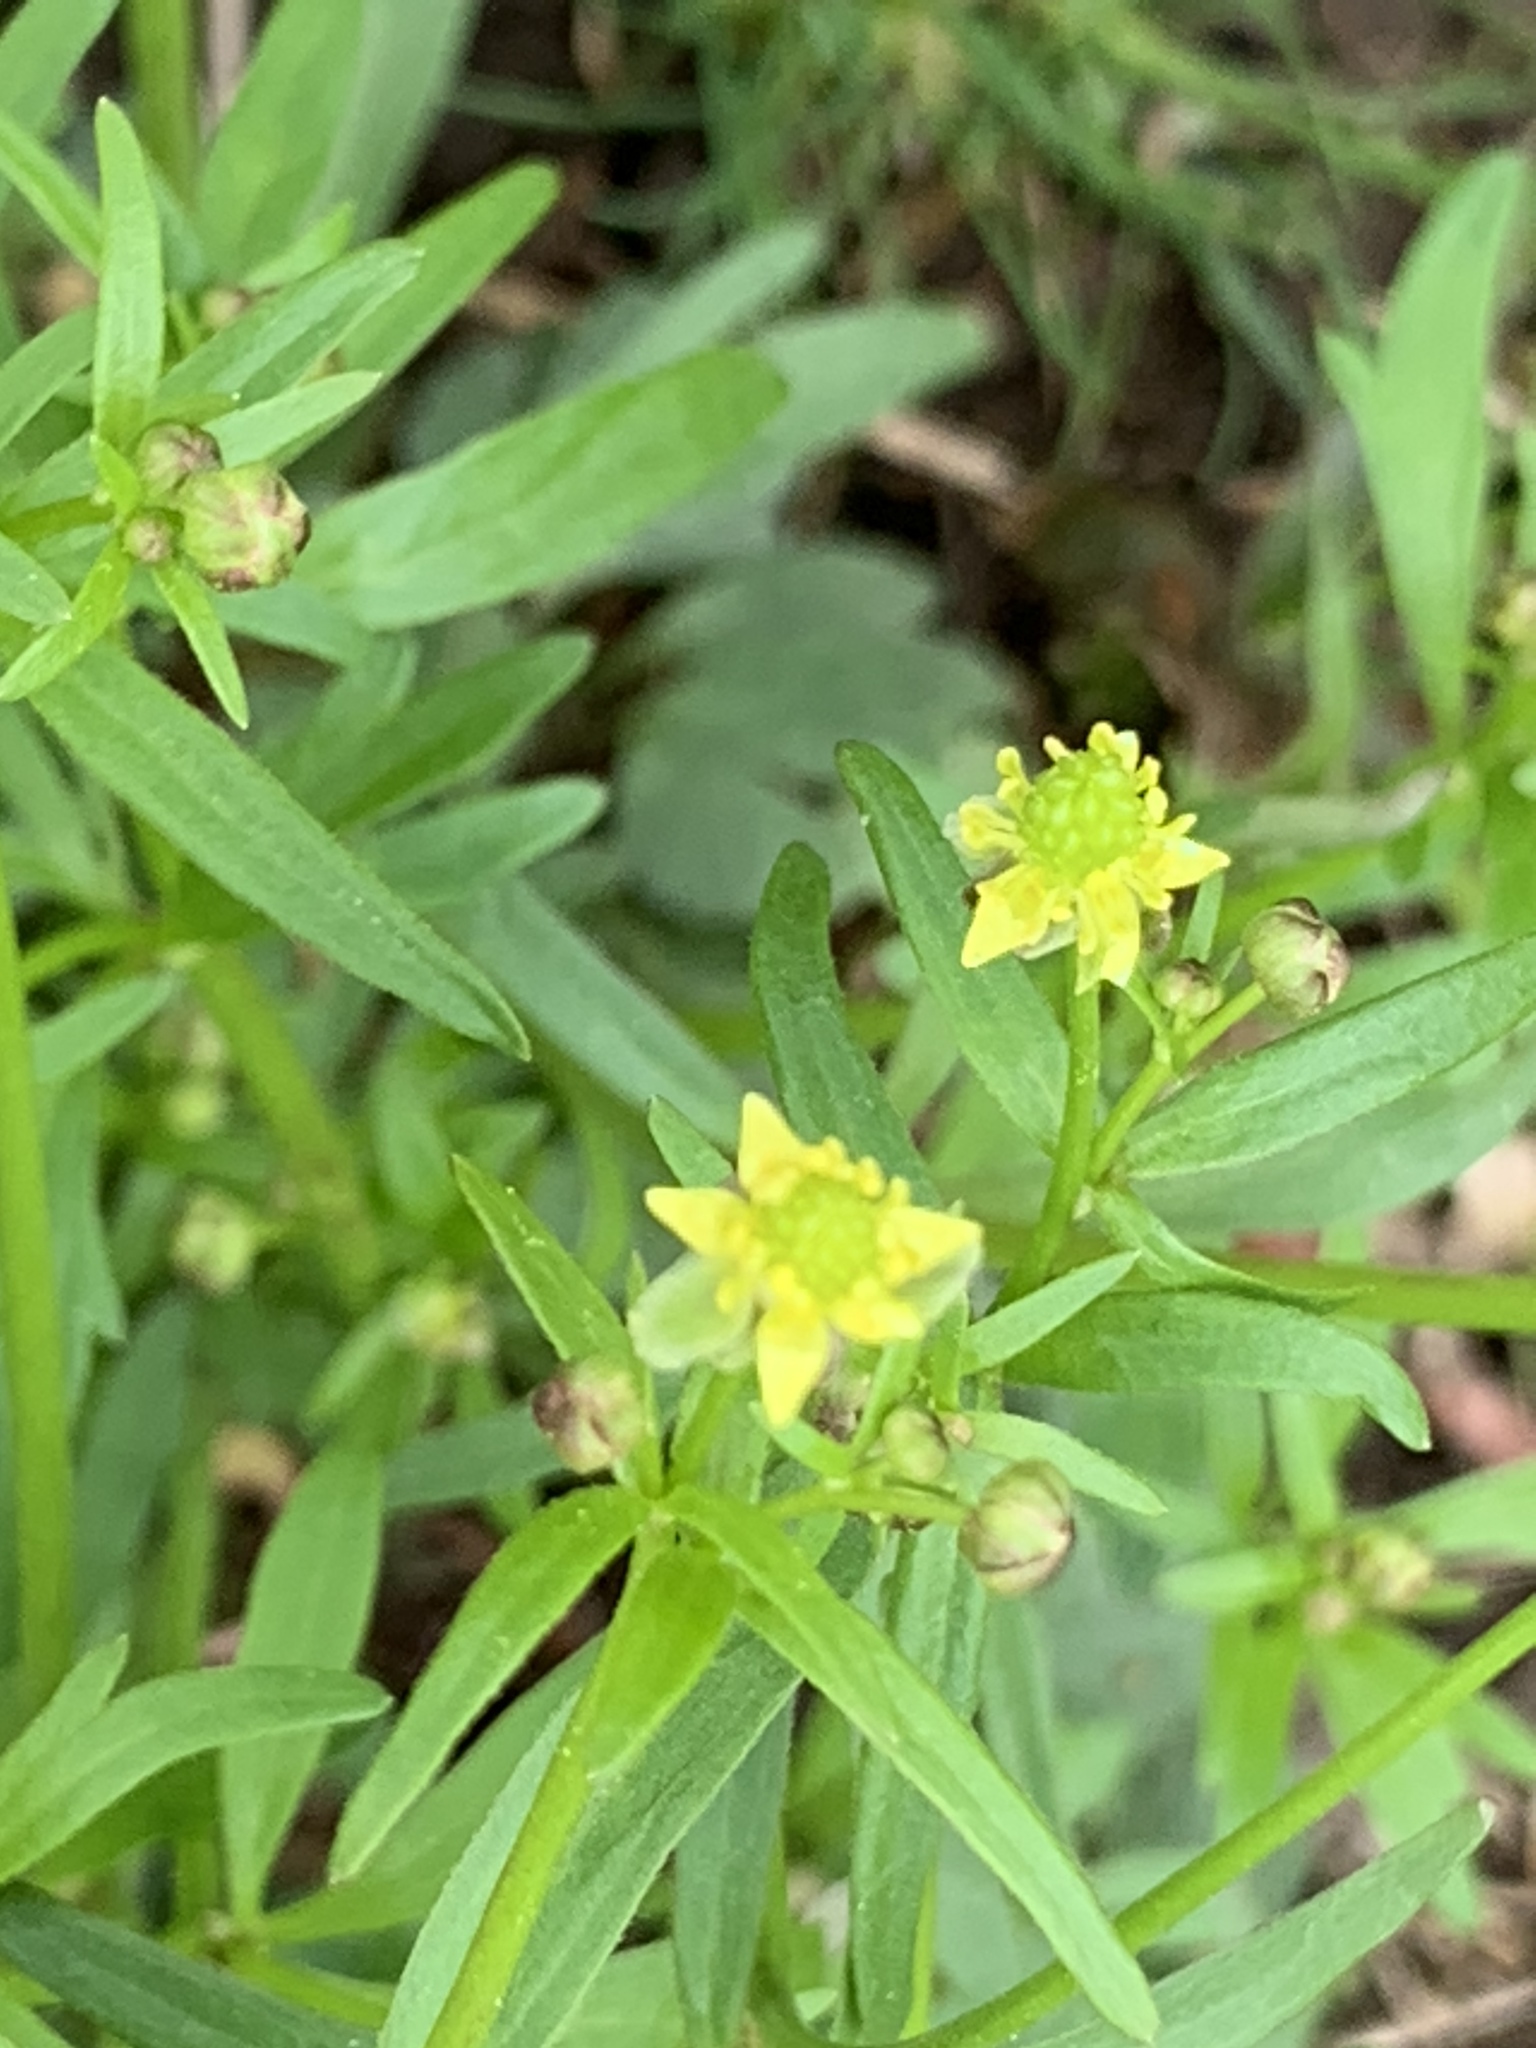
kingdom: Plantae
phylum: Tracheophyta
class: Magnoliopsida
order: Ranunculales
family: Ranunculaceae
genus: Ranunculus
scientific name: Ranunculus abortivus
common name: Early wood buttercup
